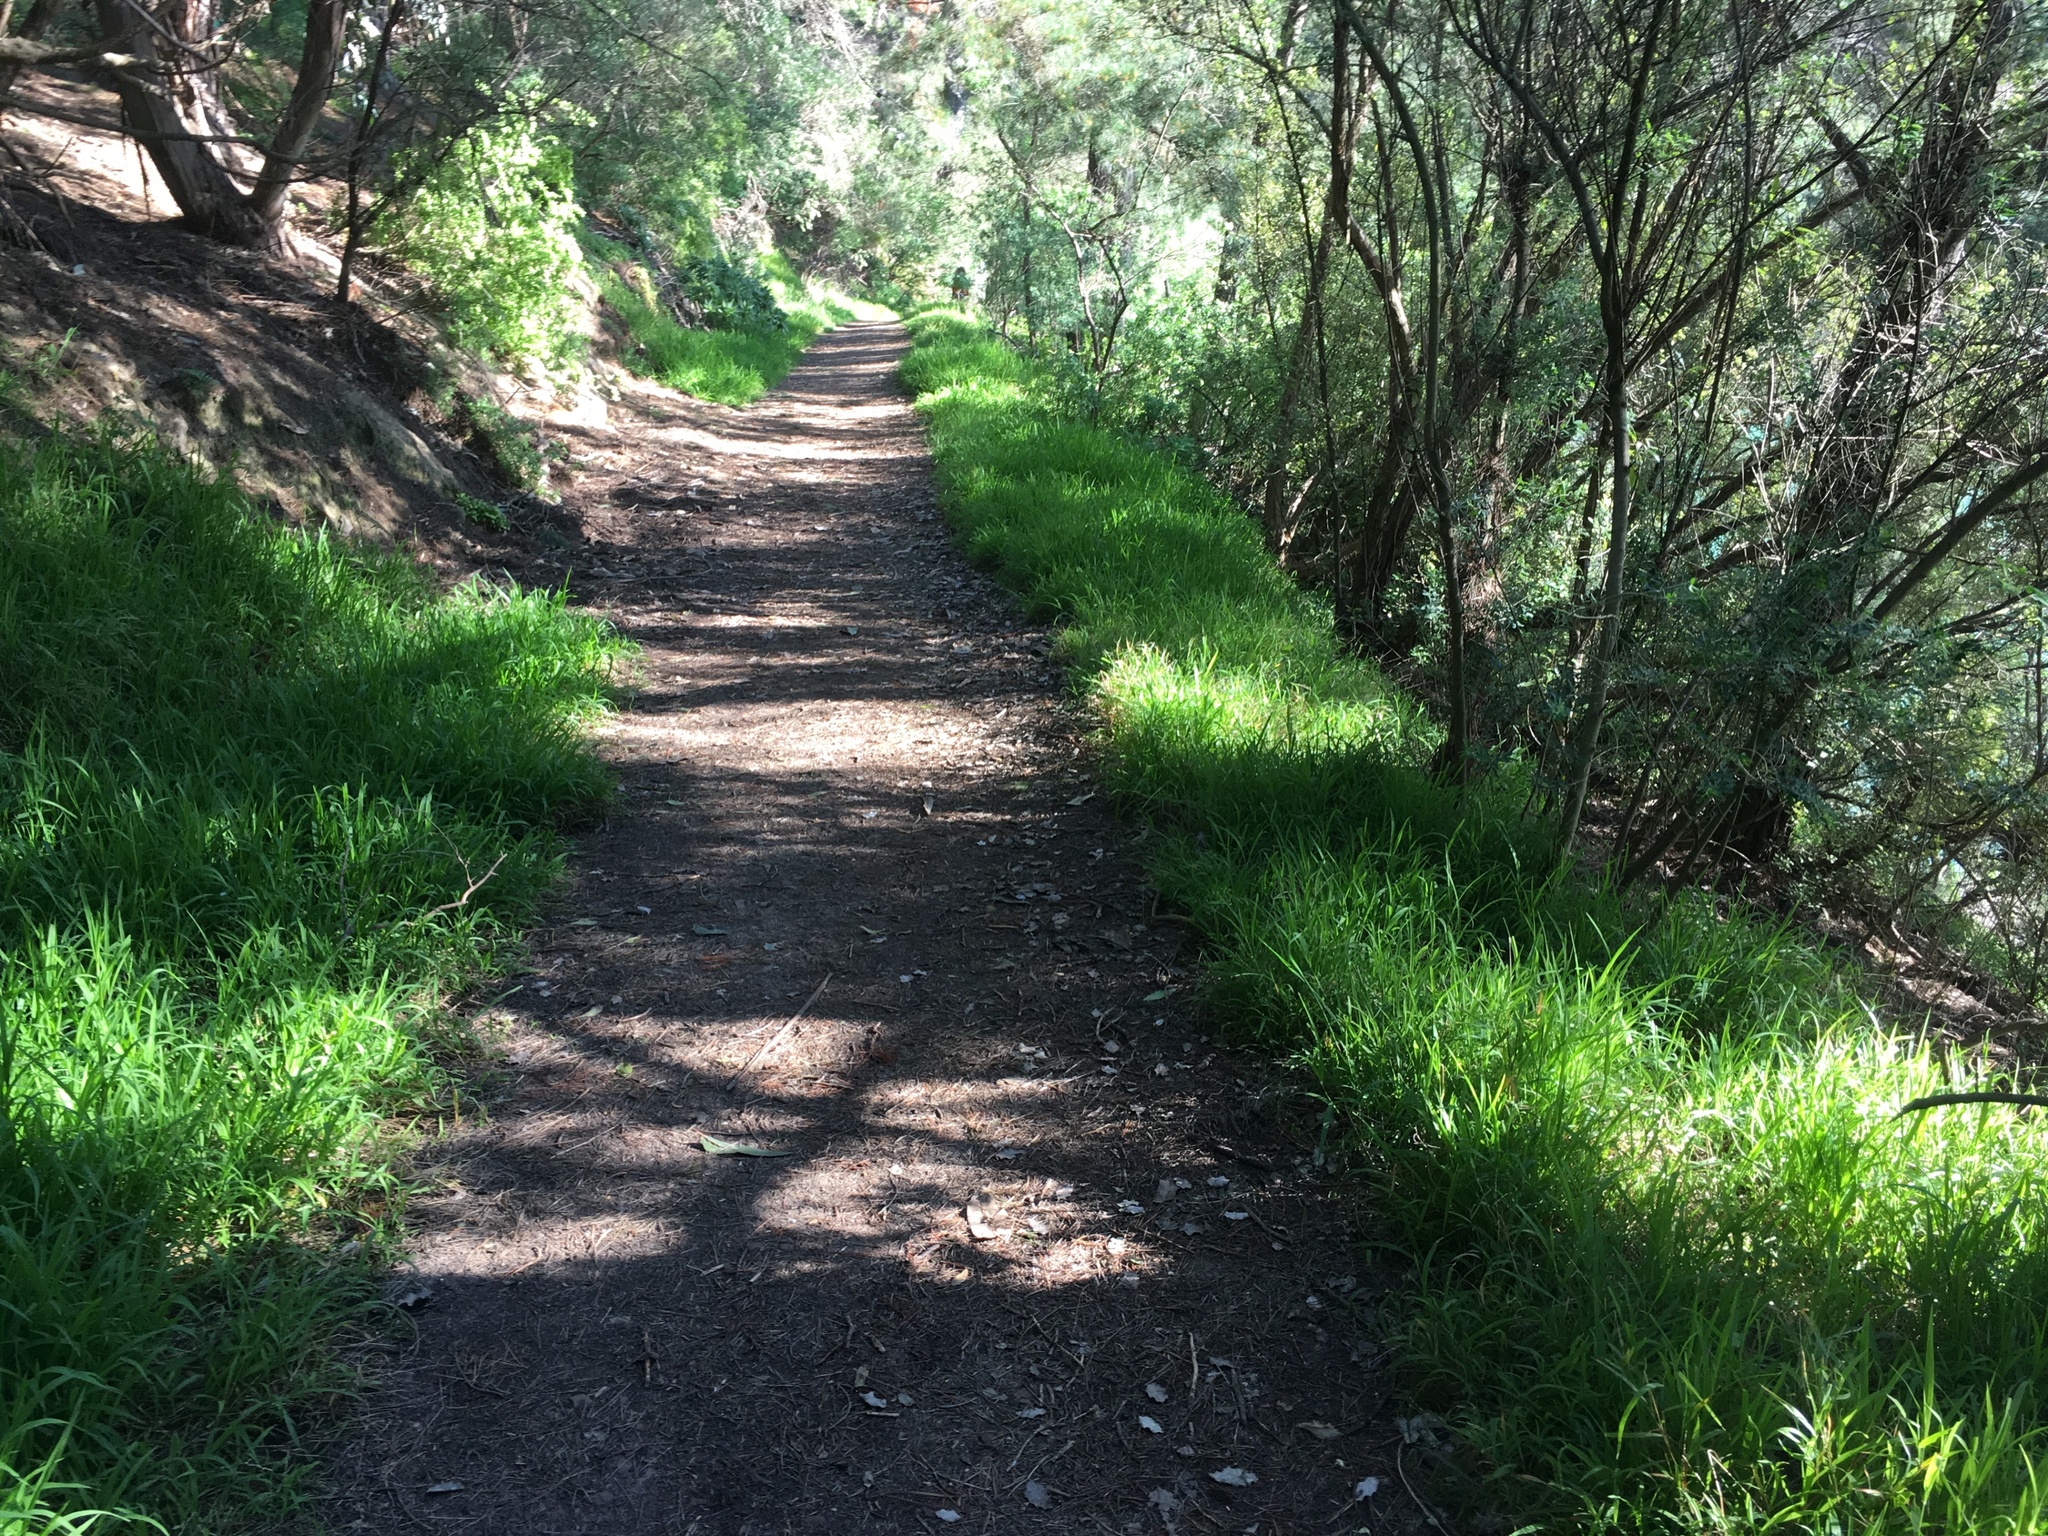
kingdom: Plantae
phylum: Tracheophyta
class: Liliopsida
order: Poales
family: Poaceae
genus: Ehrharta
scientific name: Ehrharta erecta
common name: Panic veldtgrass
